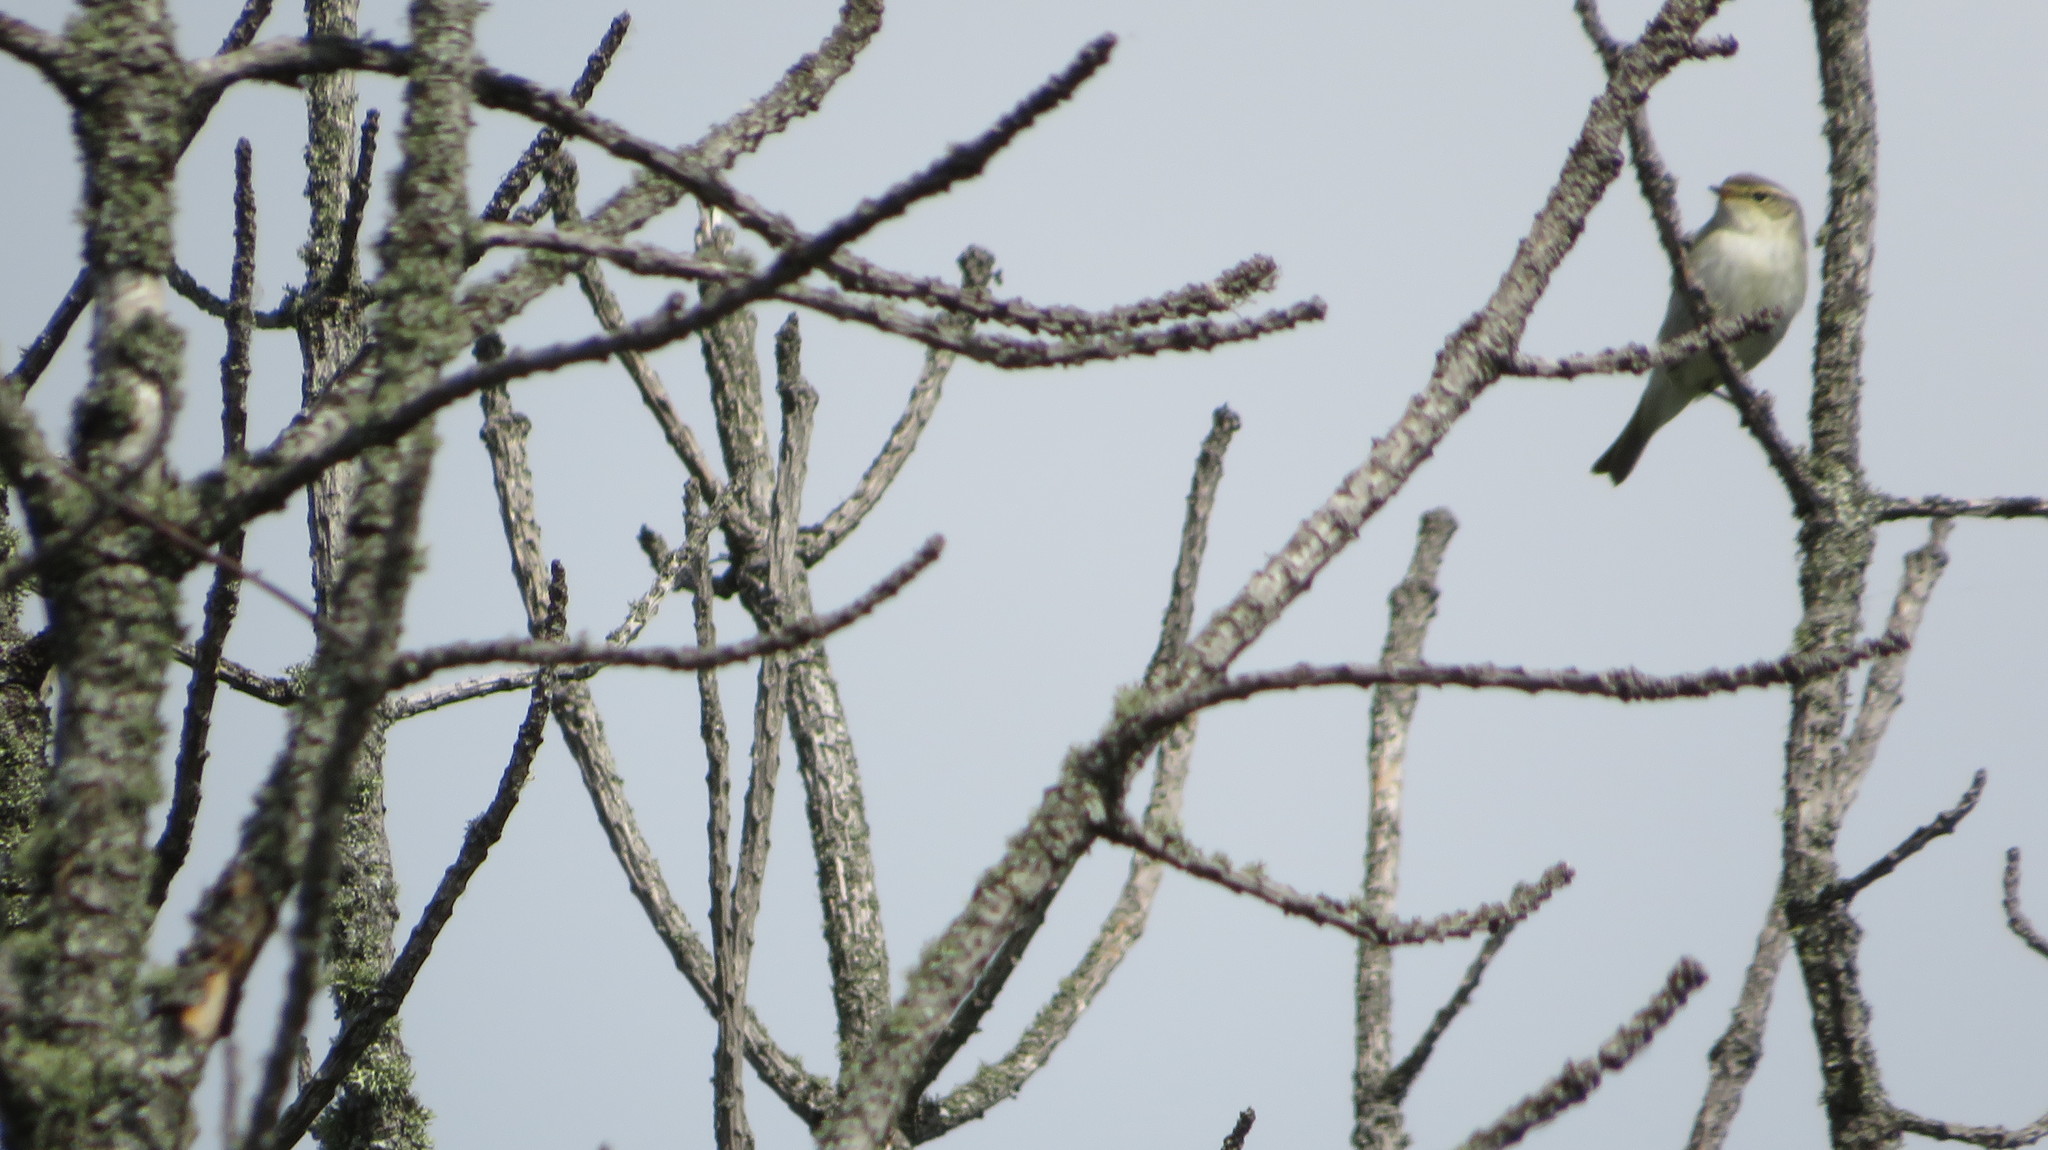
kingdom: Animalia
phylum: Chordata
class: Aves
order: Passeriformes
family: Phylloscopidae
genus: Phylloscopus
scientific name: Phylloscopus trochiloides
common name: Greenish warbler
